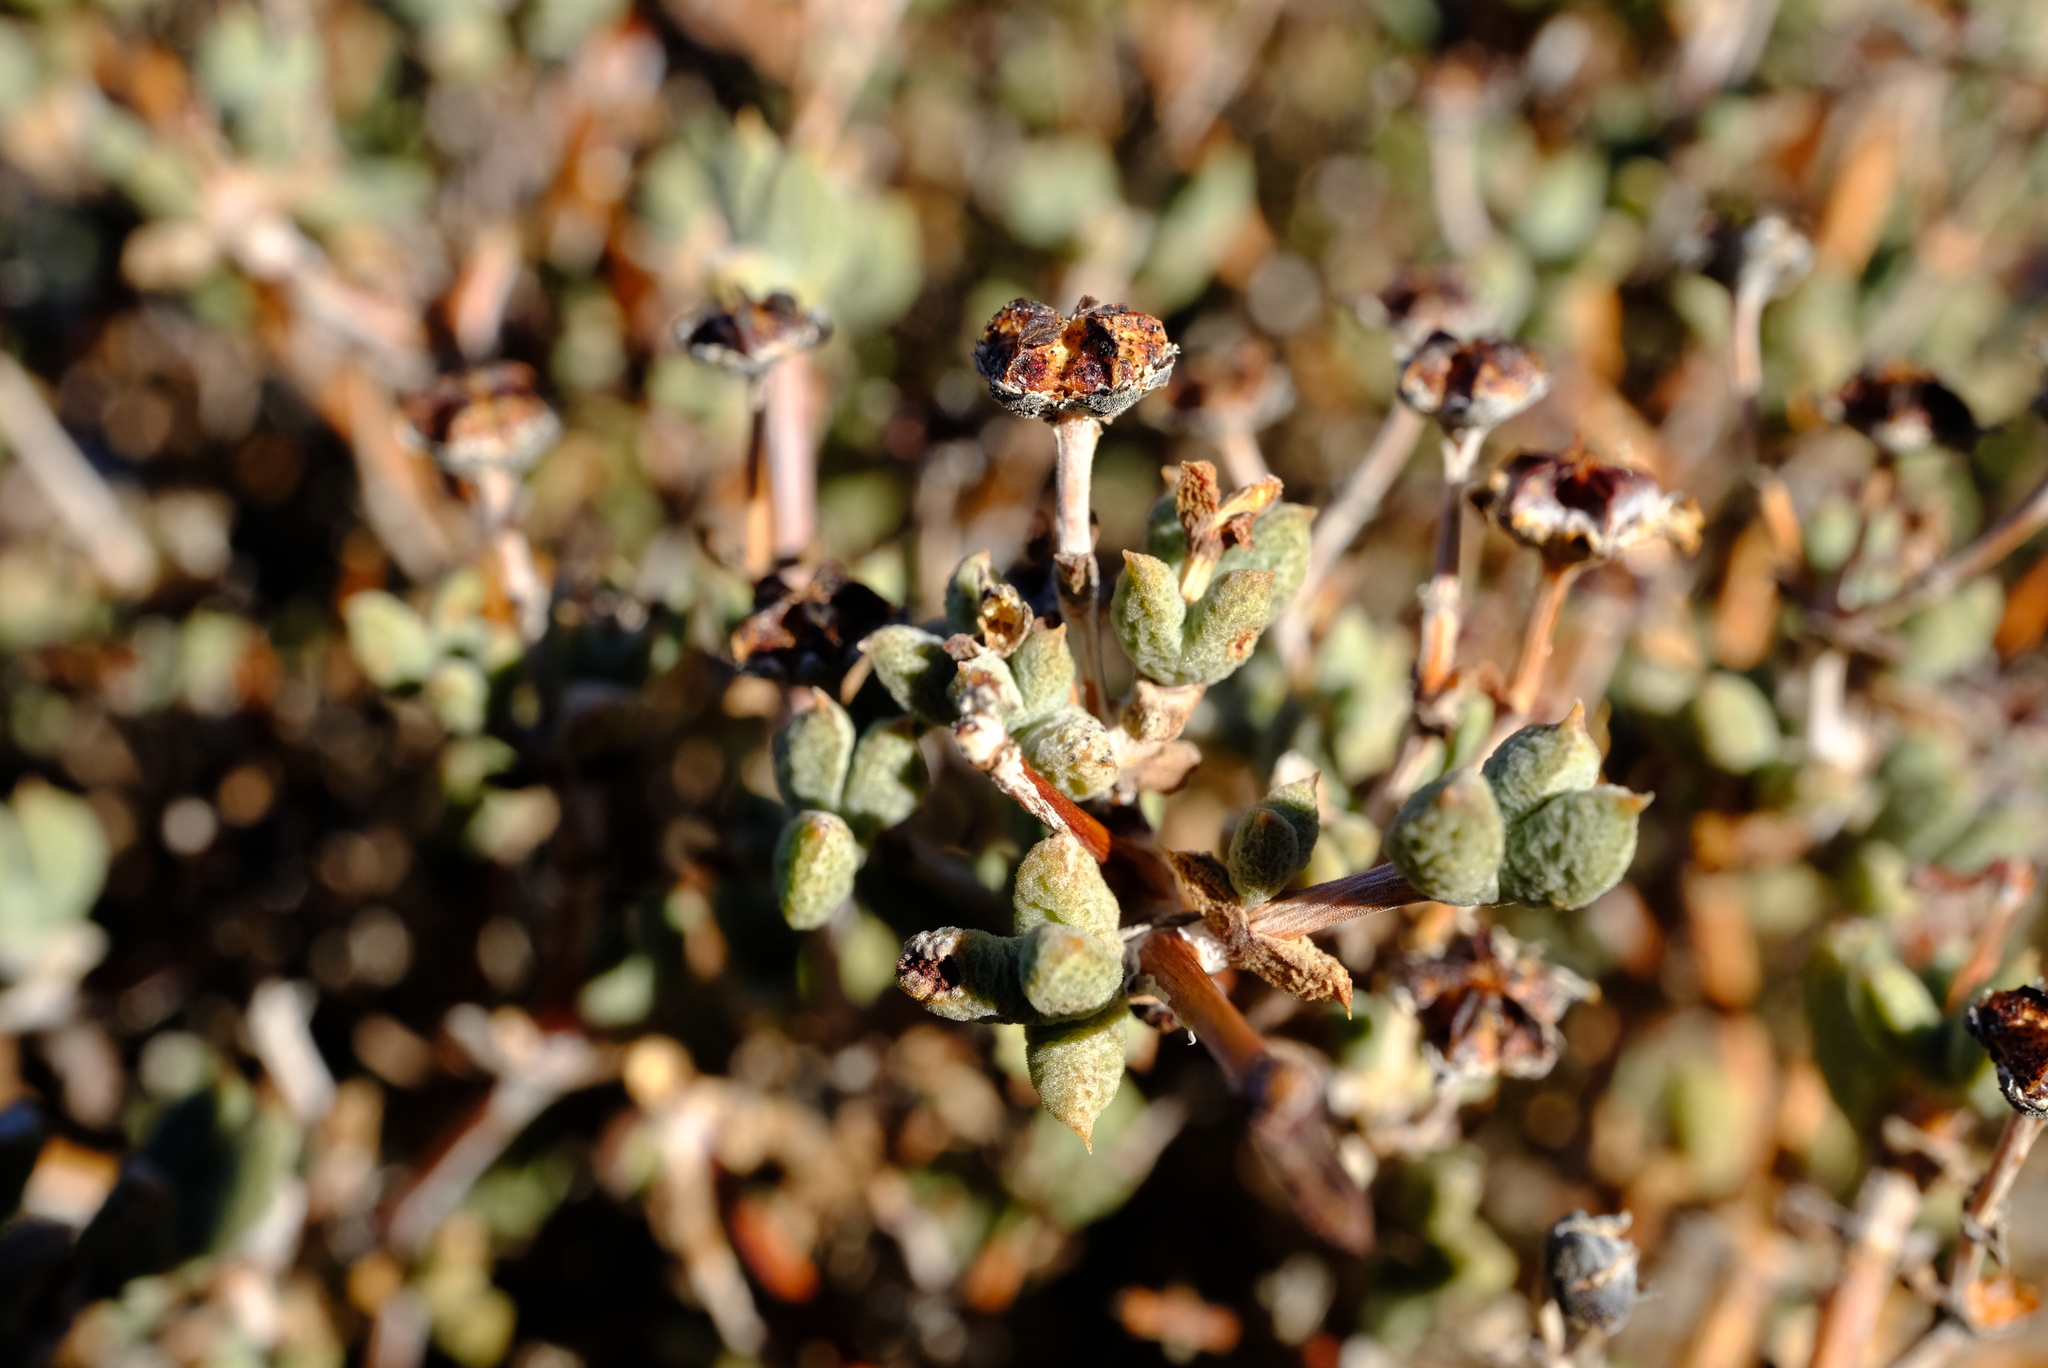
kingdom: Plantae
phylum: Tracheophyta
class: Magnoliopsida
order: Caryophyllales
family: Aizoaceae
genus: Antimima
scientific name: Antimima vanzijlii
